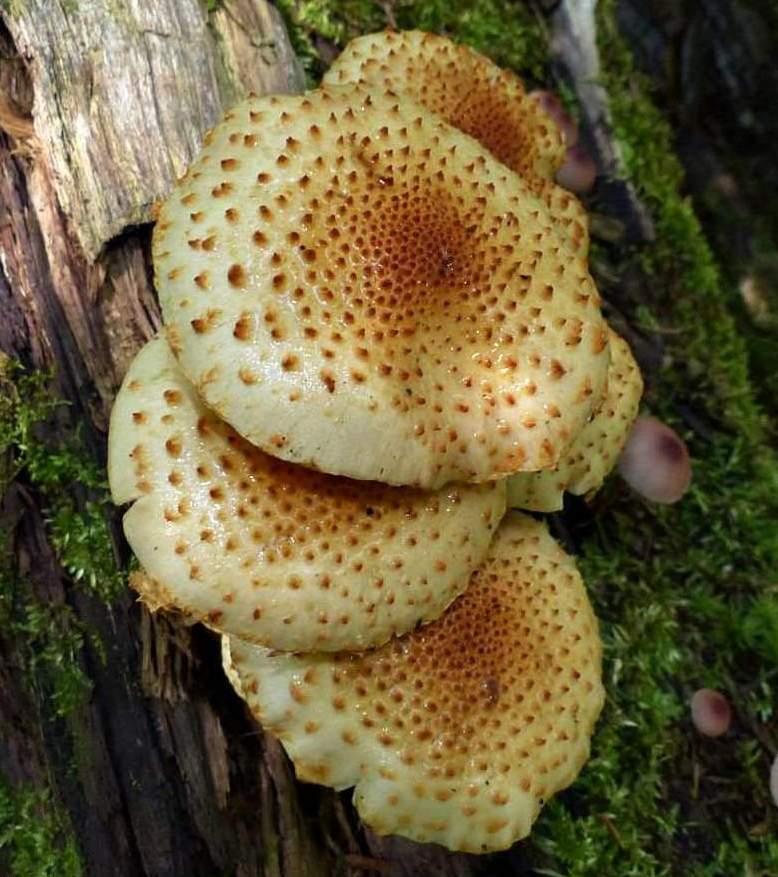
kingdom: Fungi
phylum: Basidiomycota
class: Agaricomycetes
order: Agaricales
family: Strophariaceae
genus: Pholiota
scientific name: Pholiota squarrosoides
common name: Sharp-scaly pholiota
